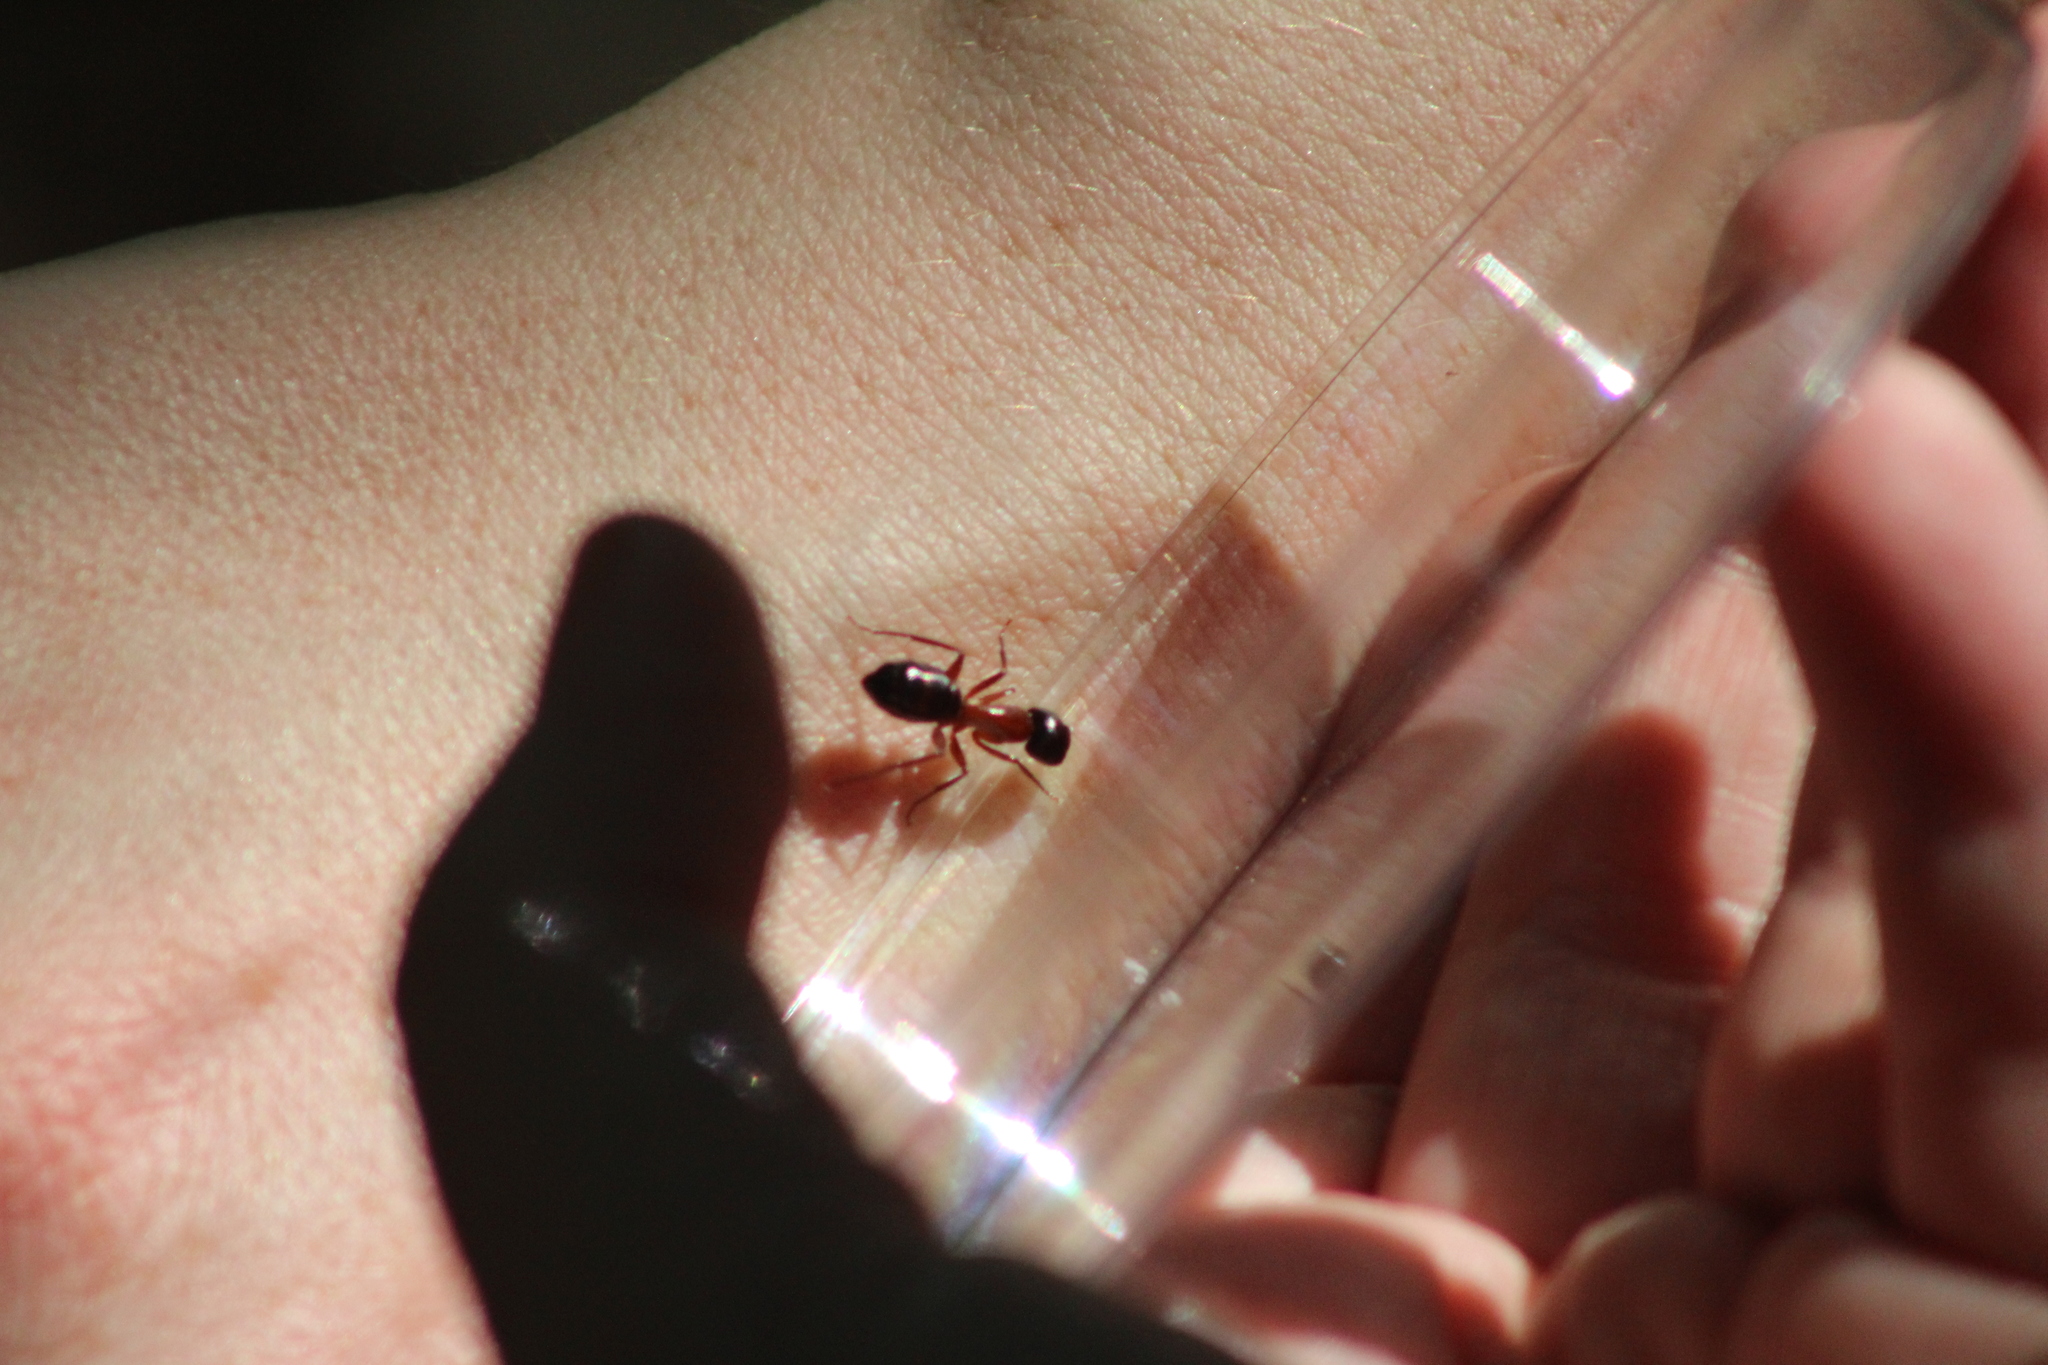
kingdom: Animalia
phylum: Arthropoda
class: Insecta
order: Hymenoptera
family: Formicidae
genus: Camponotus
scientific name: Camponotus texanus
